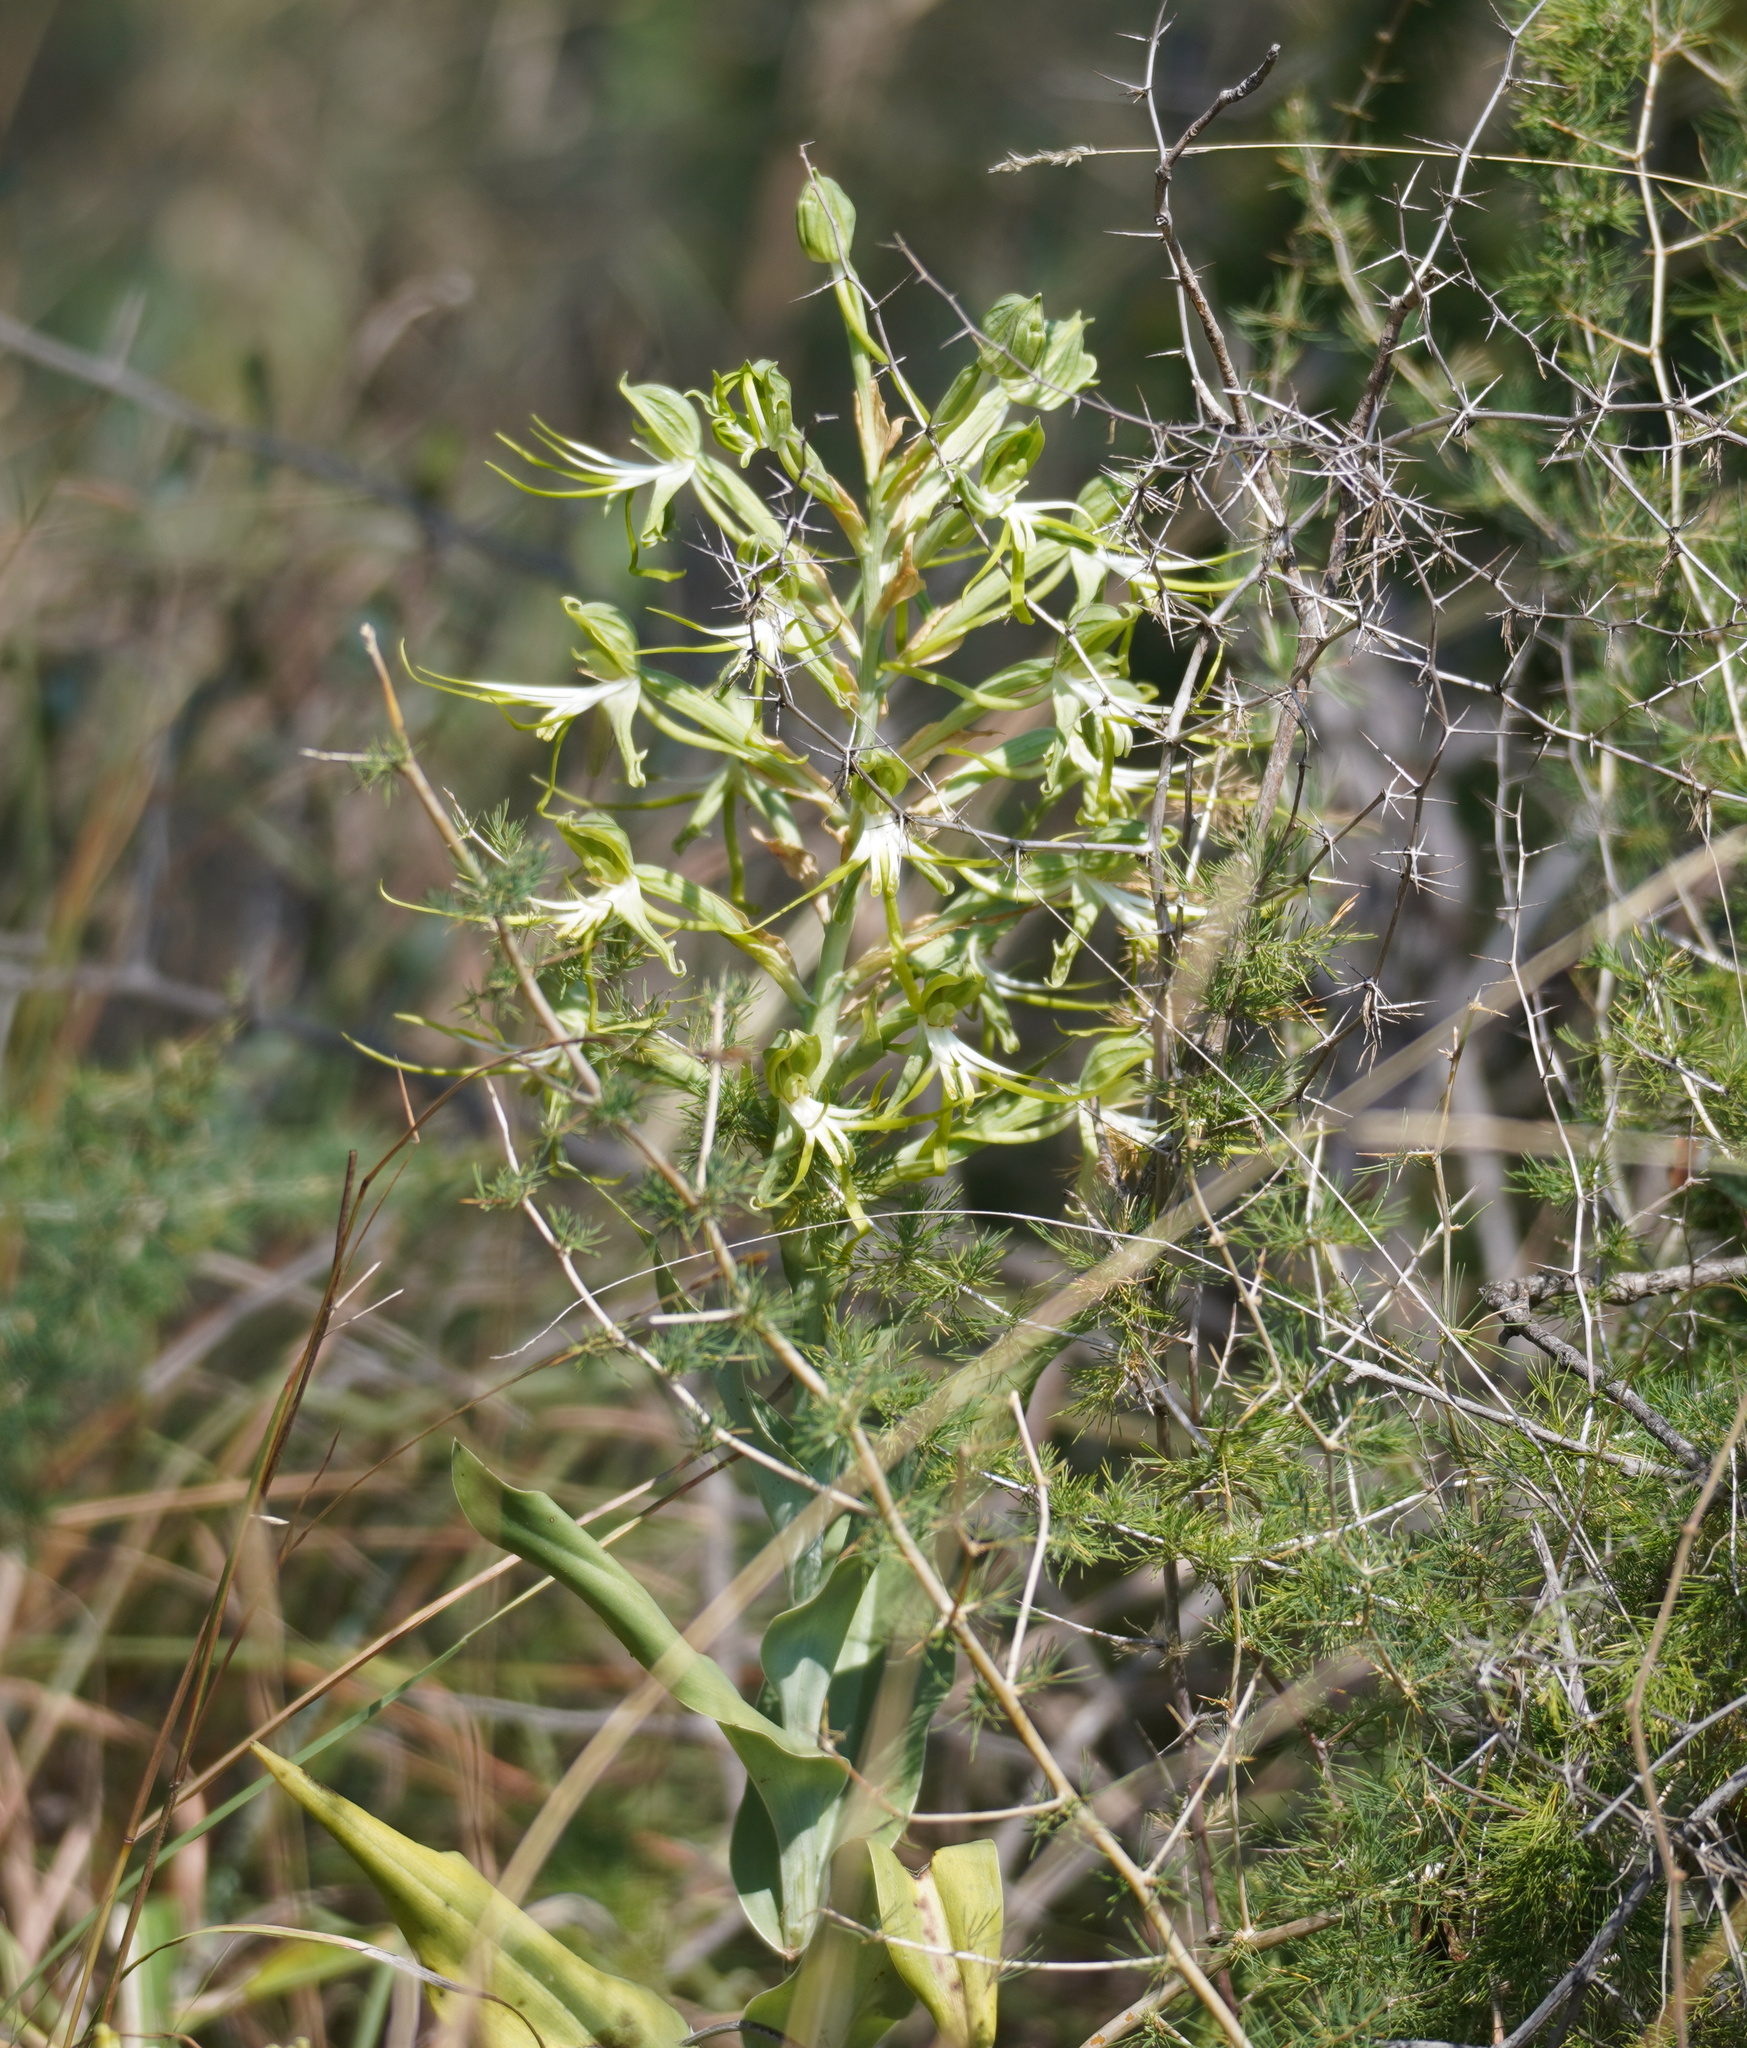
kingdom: Plantae
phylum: Tracheophyta
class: Liliopsida
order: Asparagales
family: Orchidaceae
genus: Bonatea
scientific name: Bonatea antennifera
